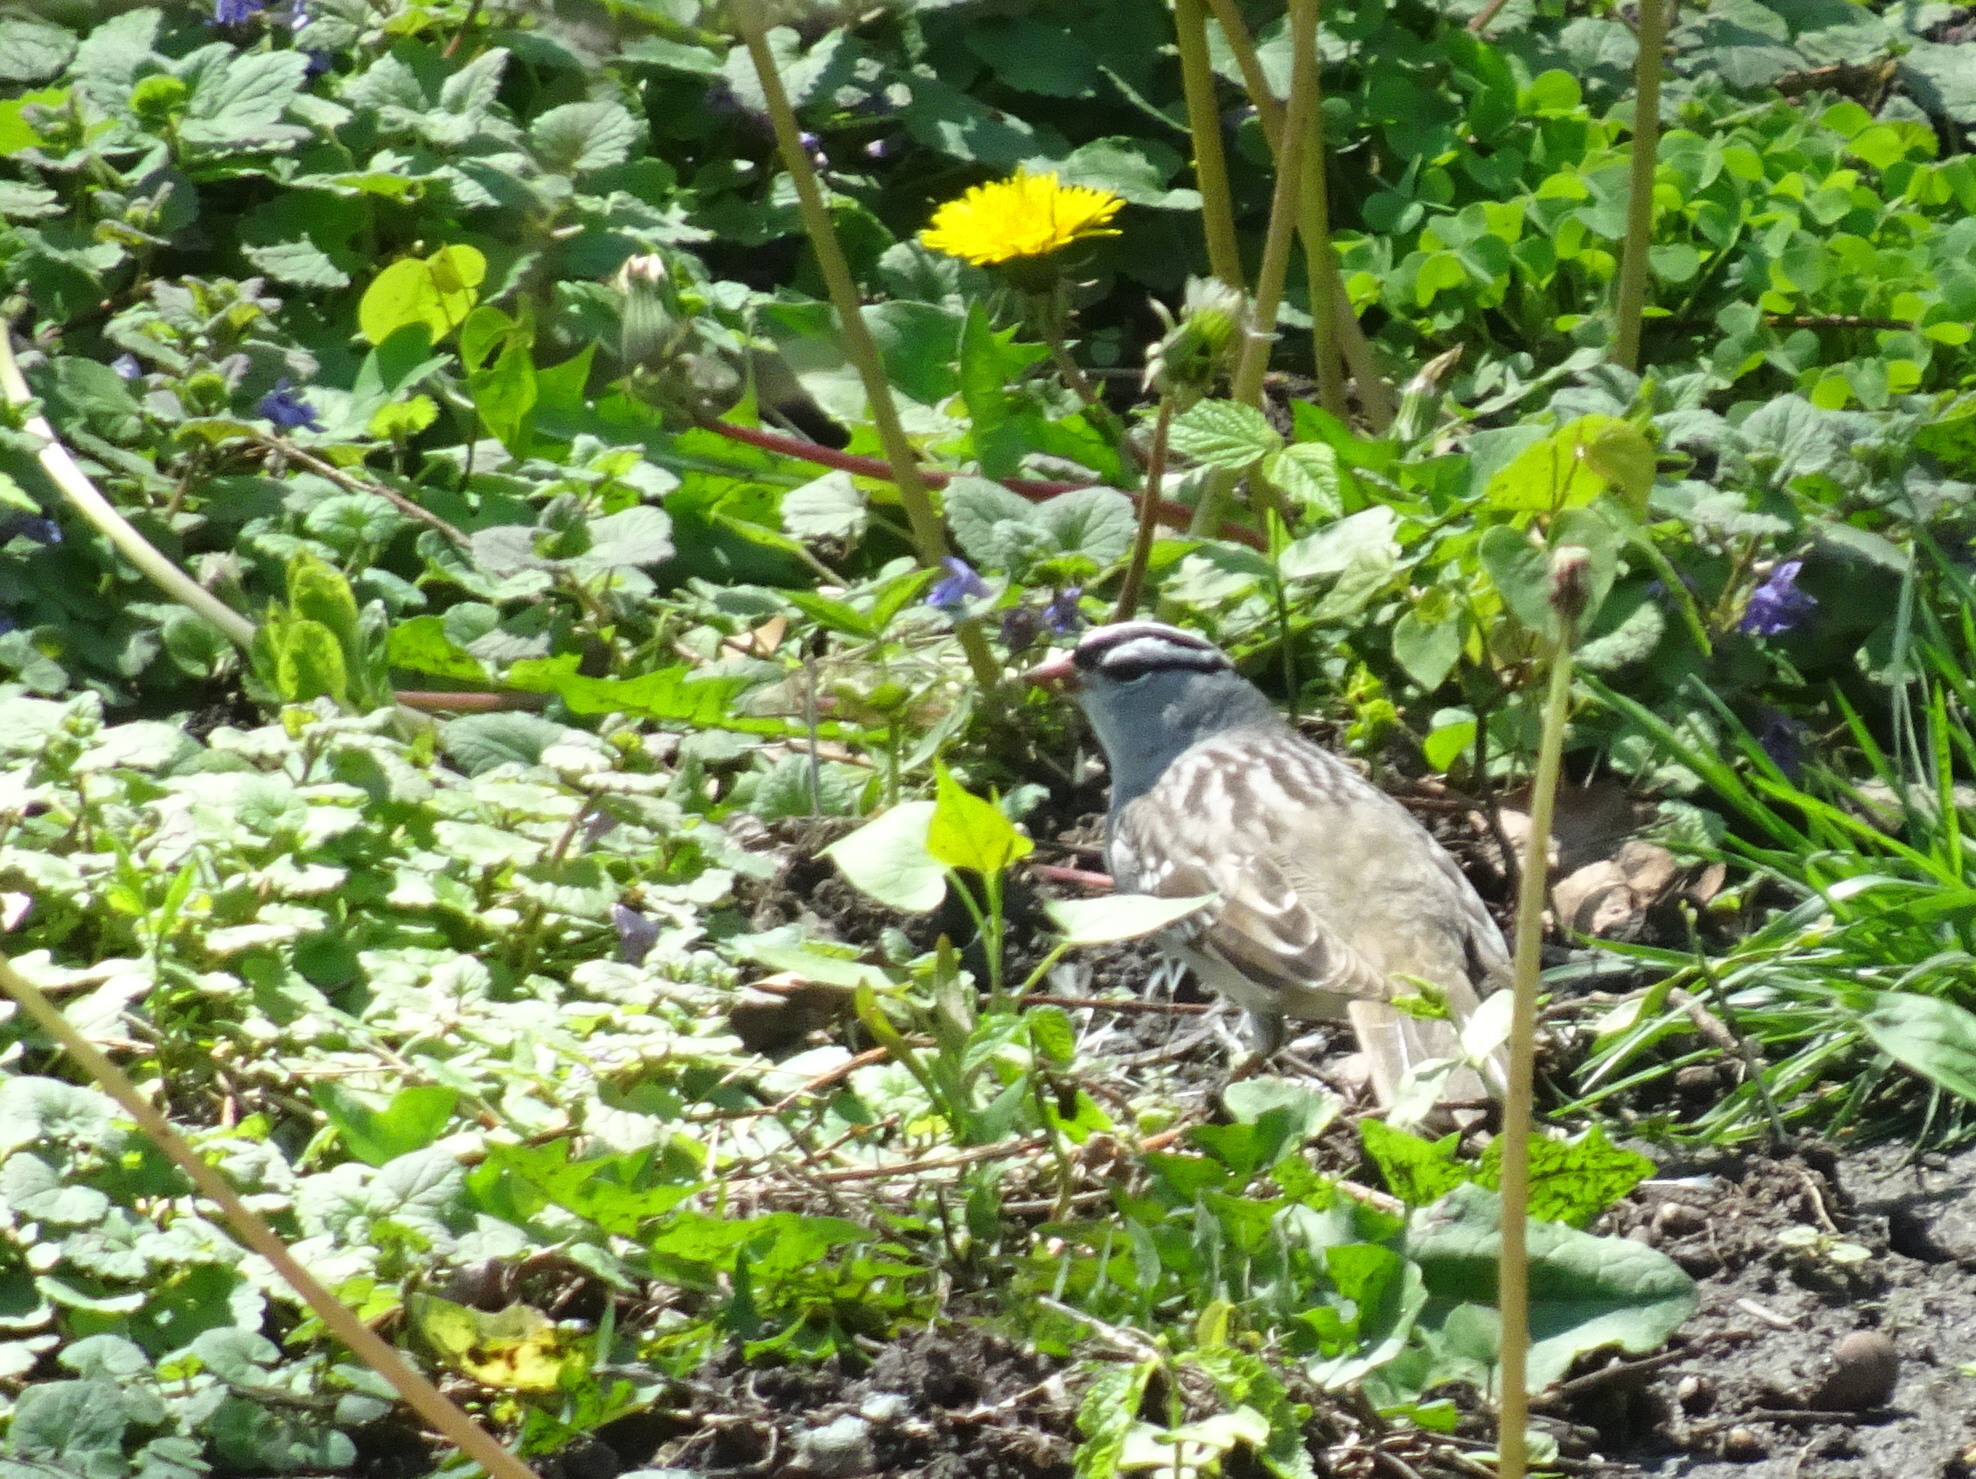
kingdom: Animalia
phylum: Chordata
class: Aves
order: Passeriformes
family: Passerellidae
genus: Zonotrichia
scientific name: Zonotrichia leucophrys
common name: White-crowned sparrow
